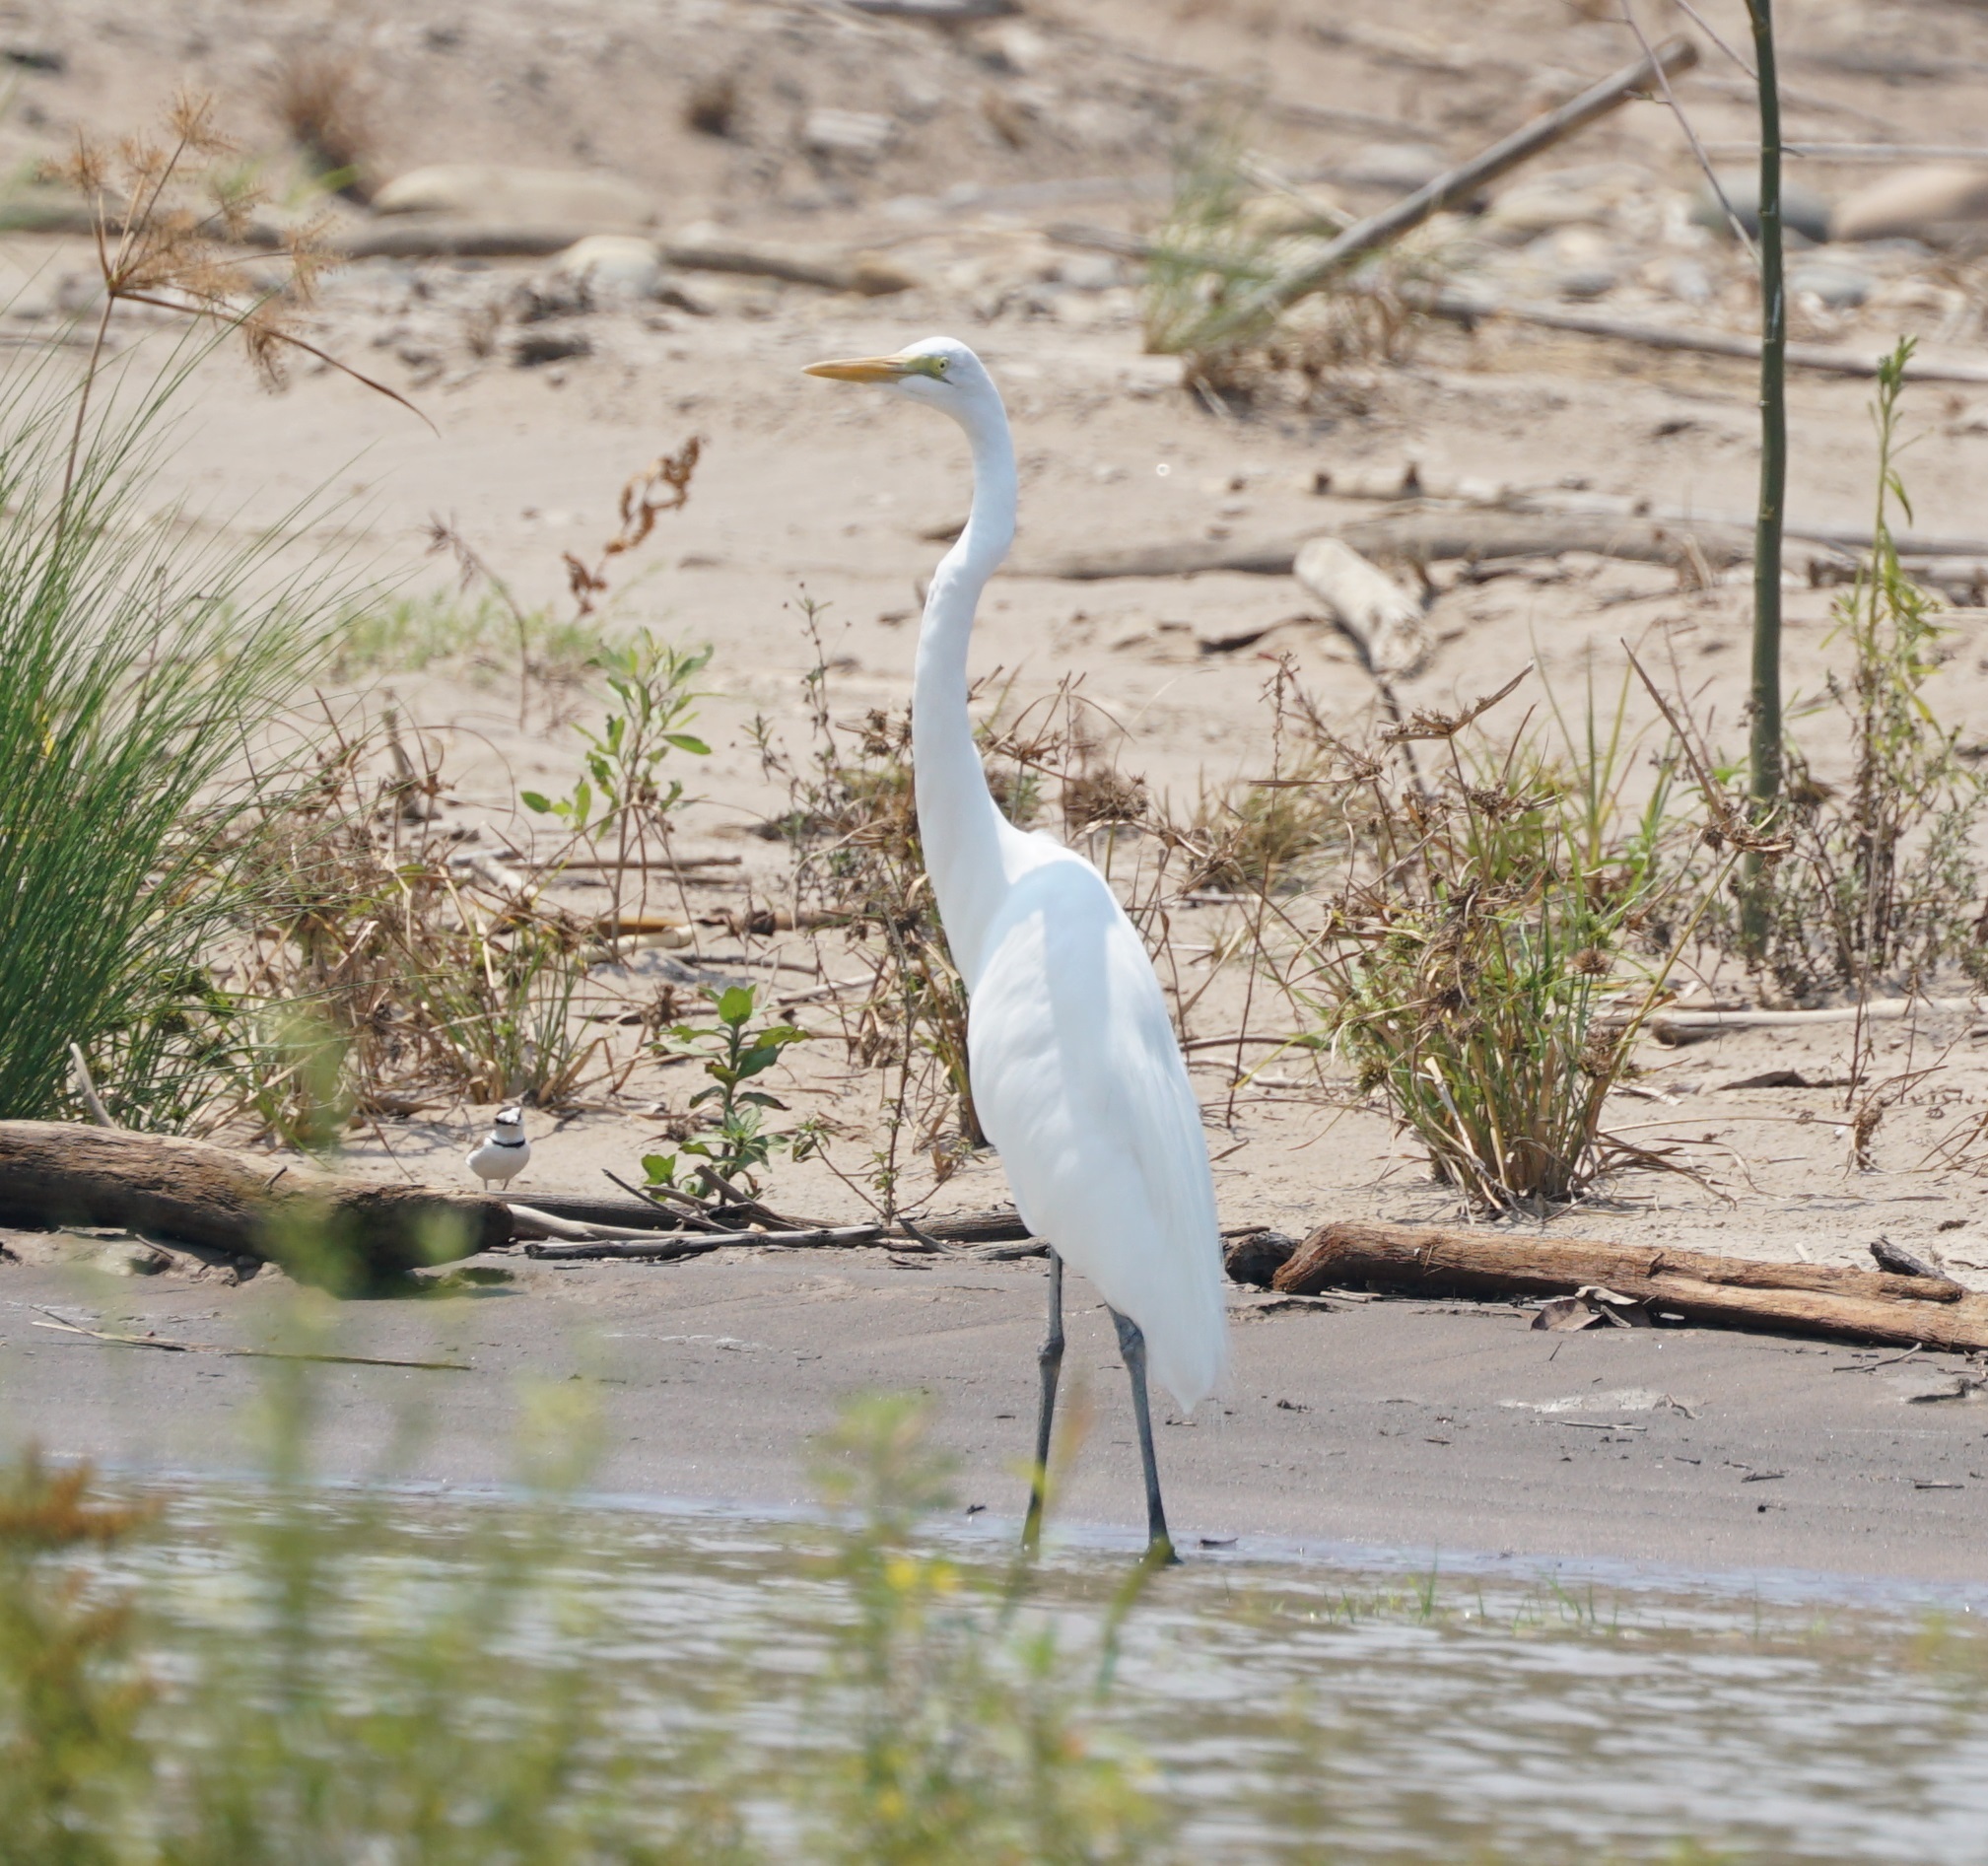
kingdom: Animalia
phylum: Chordata
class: Aves
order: Pelecaniformes
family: Ardeidae
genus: Ardea
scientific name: Ardea alba
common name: Great egret
